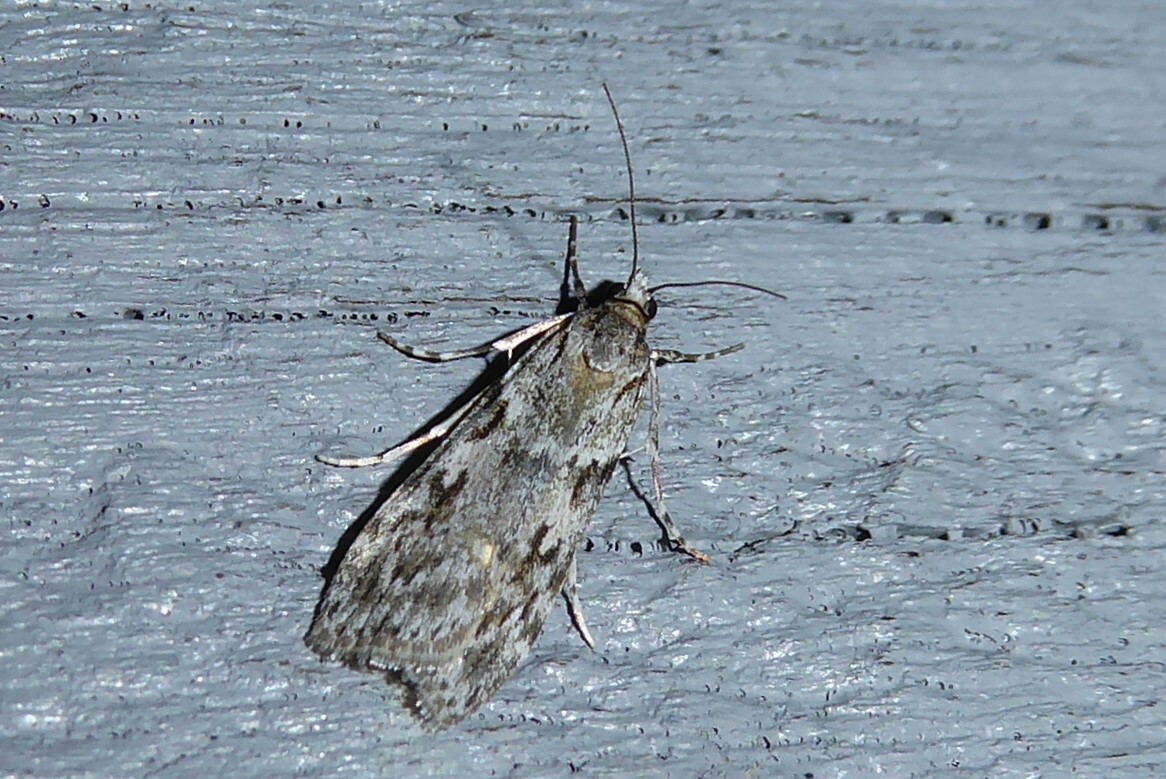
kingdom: Animalia
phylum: Arthropoda
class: Insecta
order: Lepidoptera
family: Crambidae
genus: Scoparia
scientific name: Scoparia halopis
